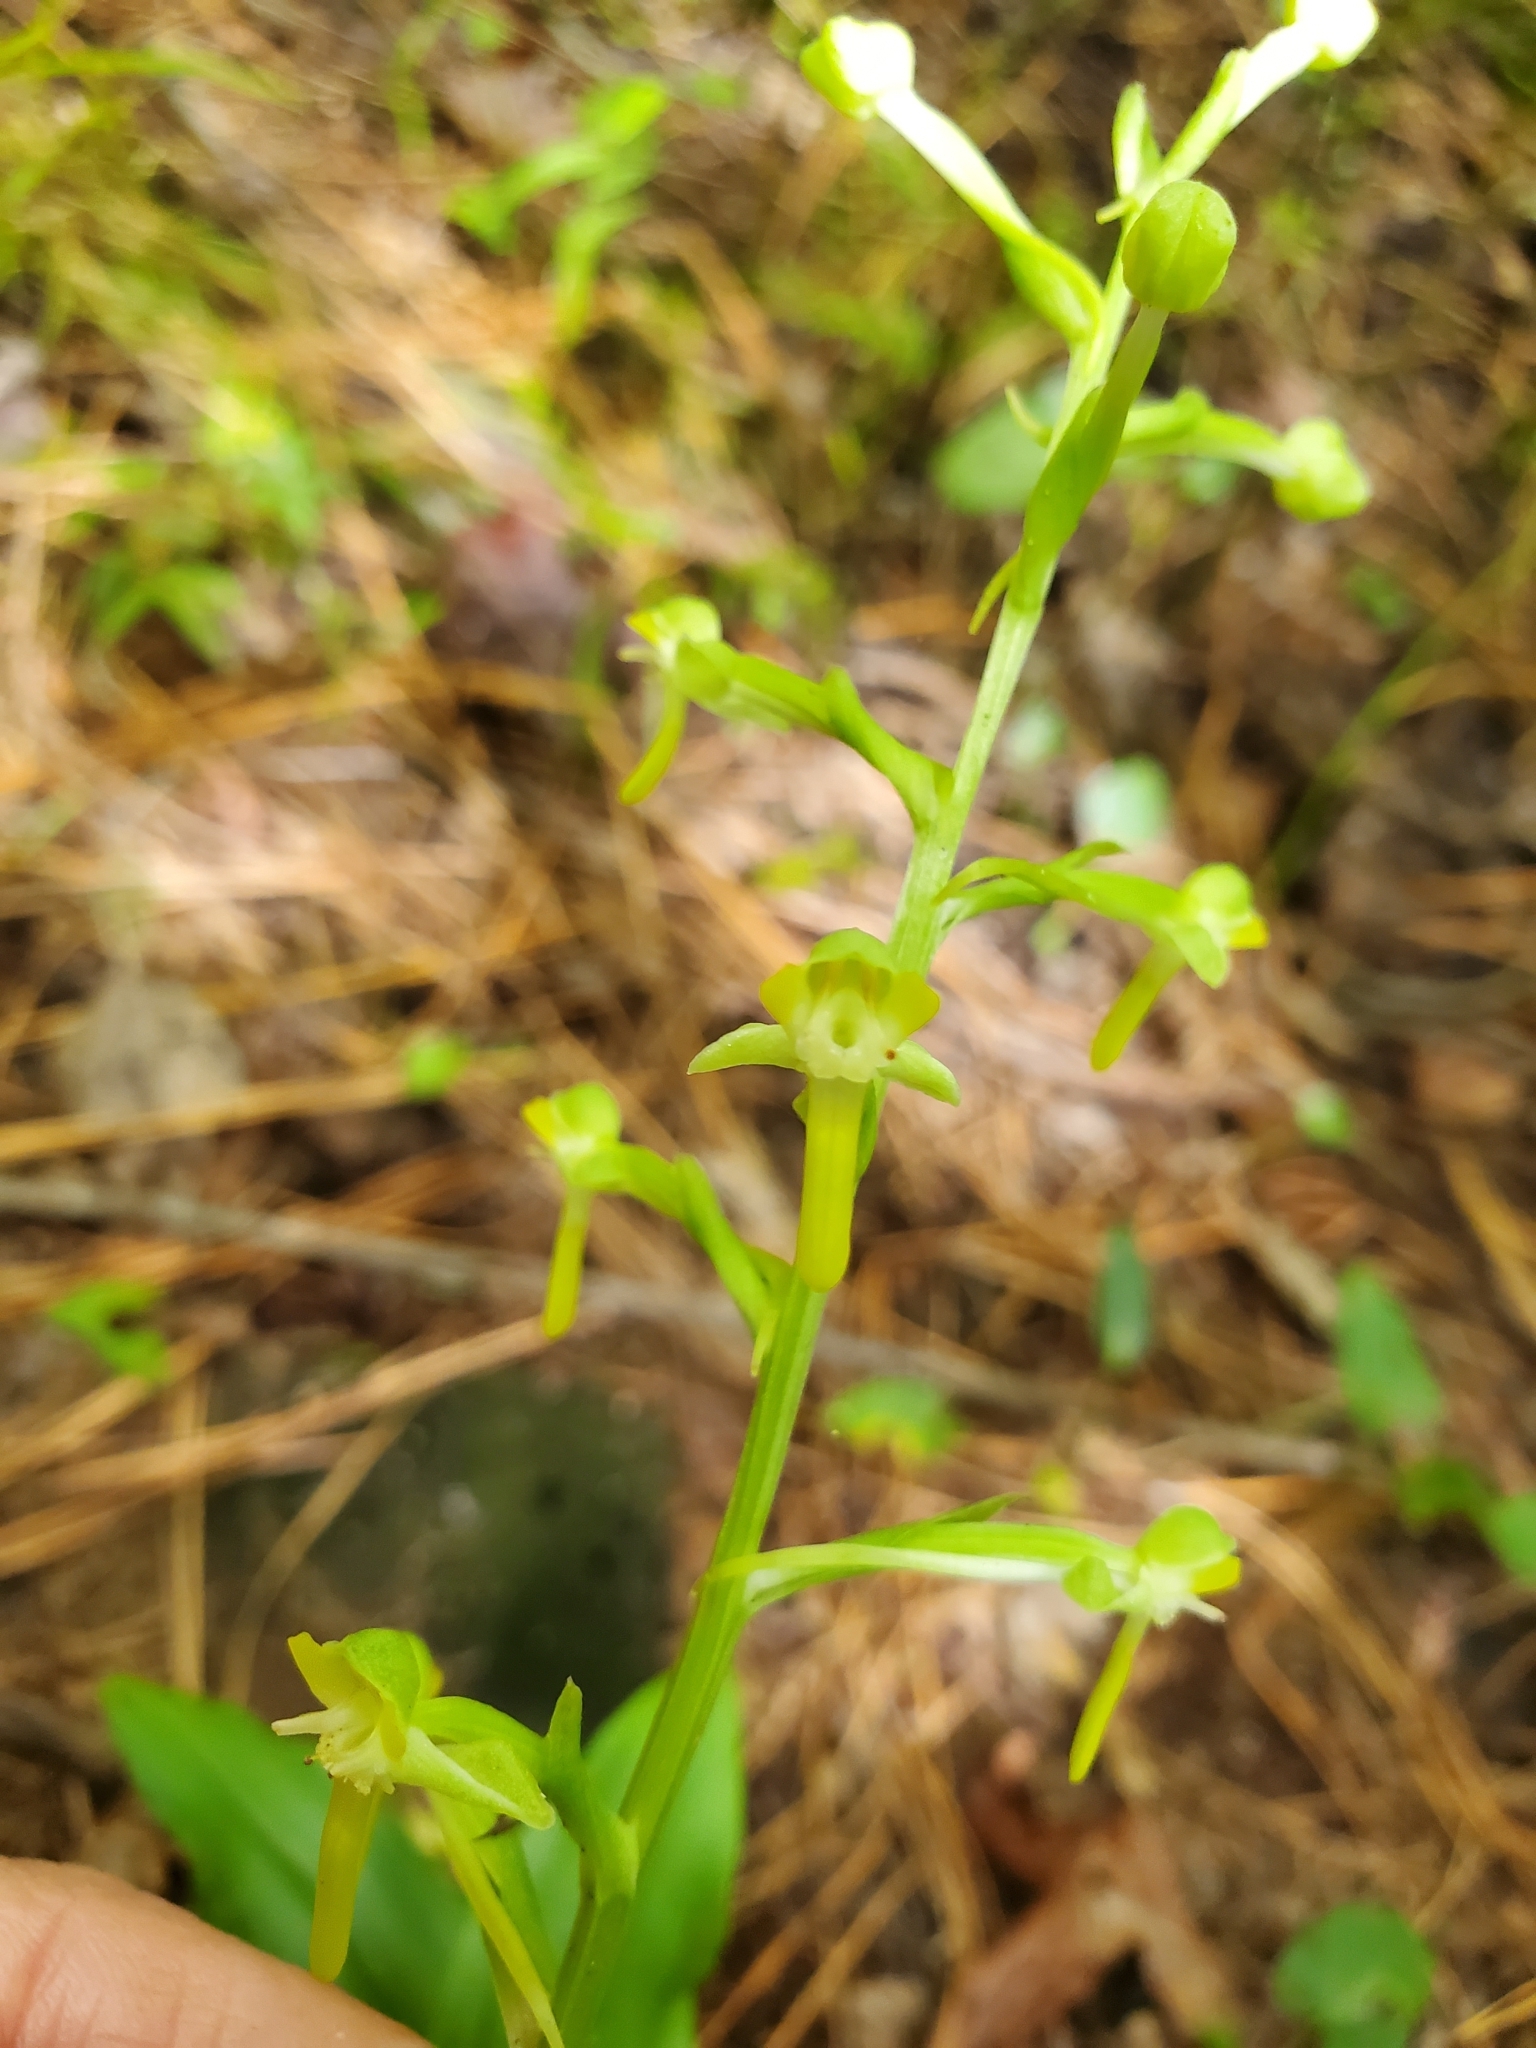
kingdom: Plantae
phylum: Tracheophyta
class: Liliopsida
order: Asparagales
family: Orchidaceae
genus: Habenaria
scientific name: Habenaria floribunda
